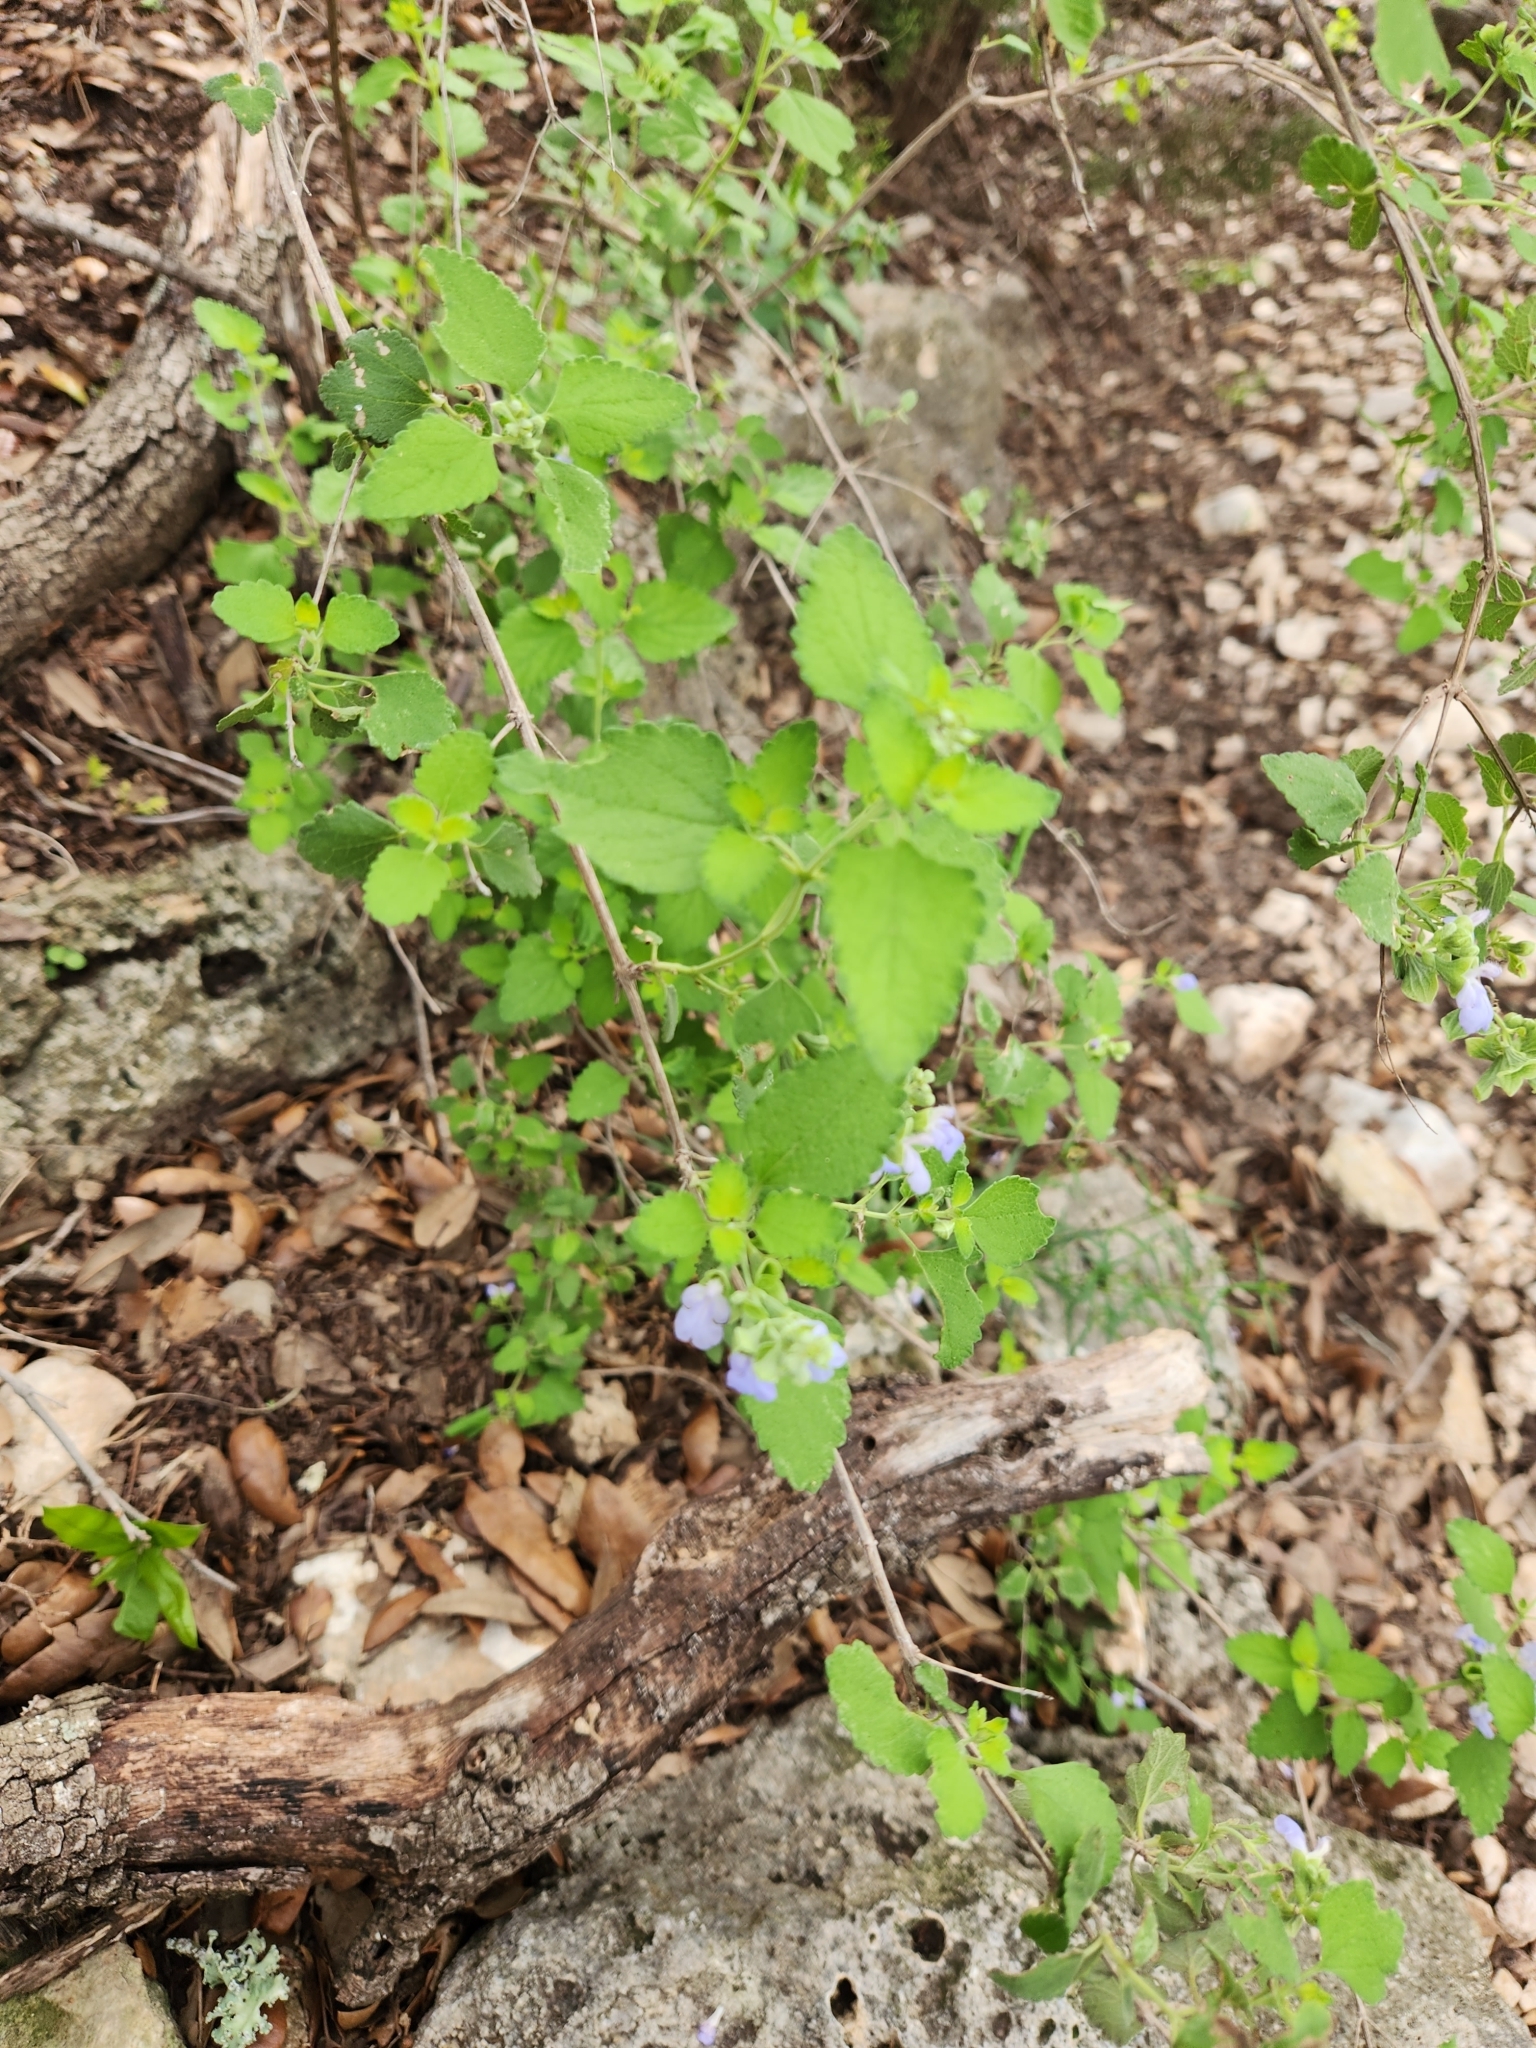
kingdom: Plantae
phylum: Tracheophyta
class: Magnoliopsida
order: Lamiales
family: Lamiaceae
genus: Salvia
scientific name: Salvia ballotiflora
